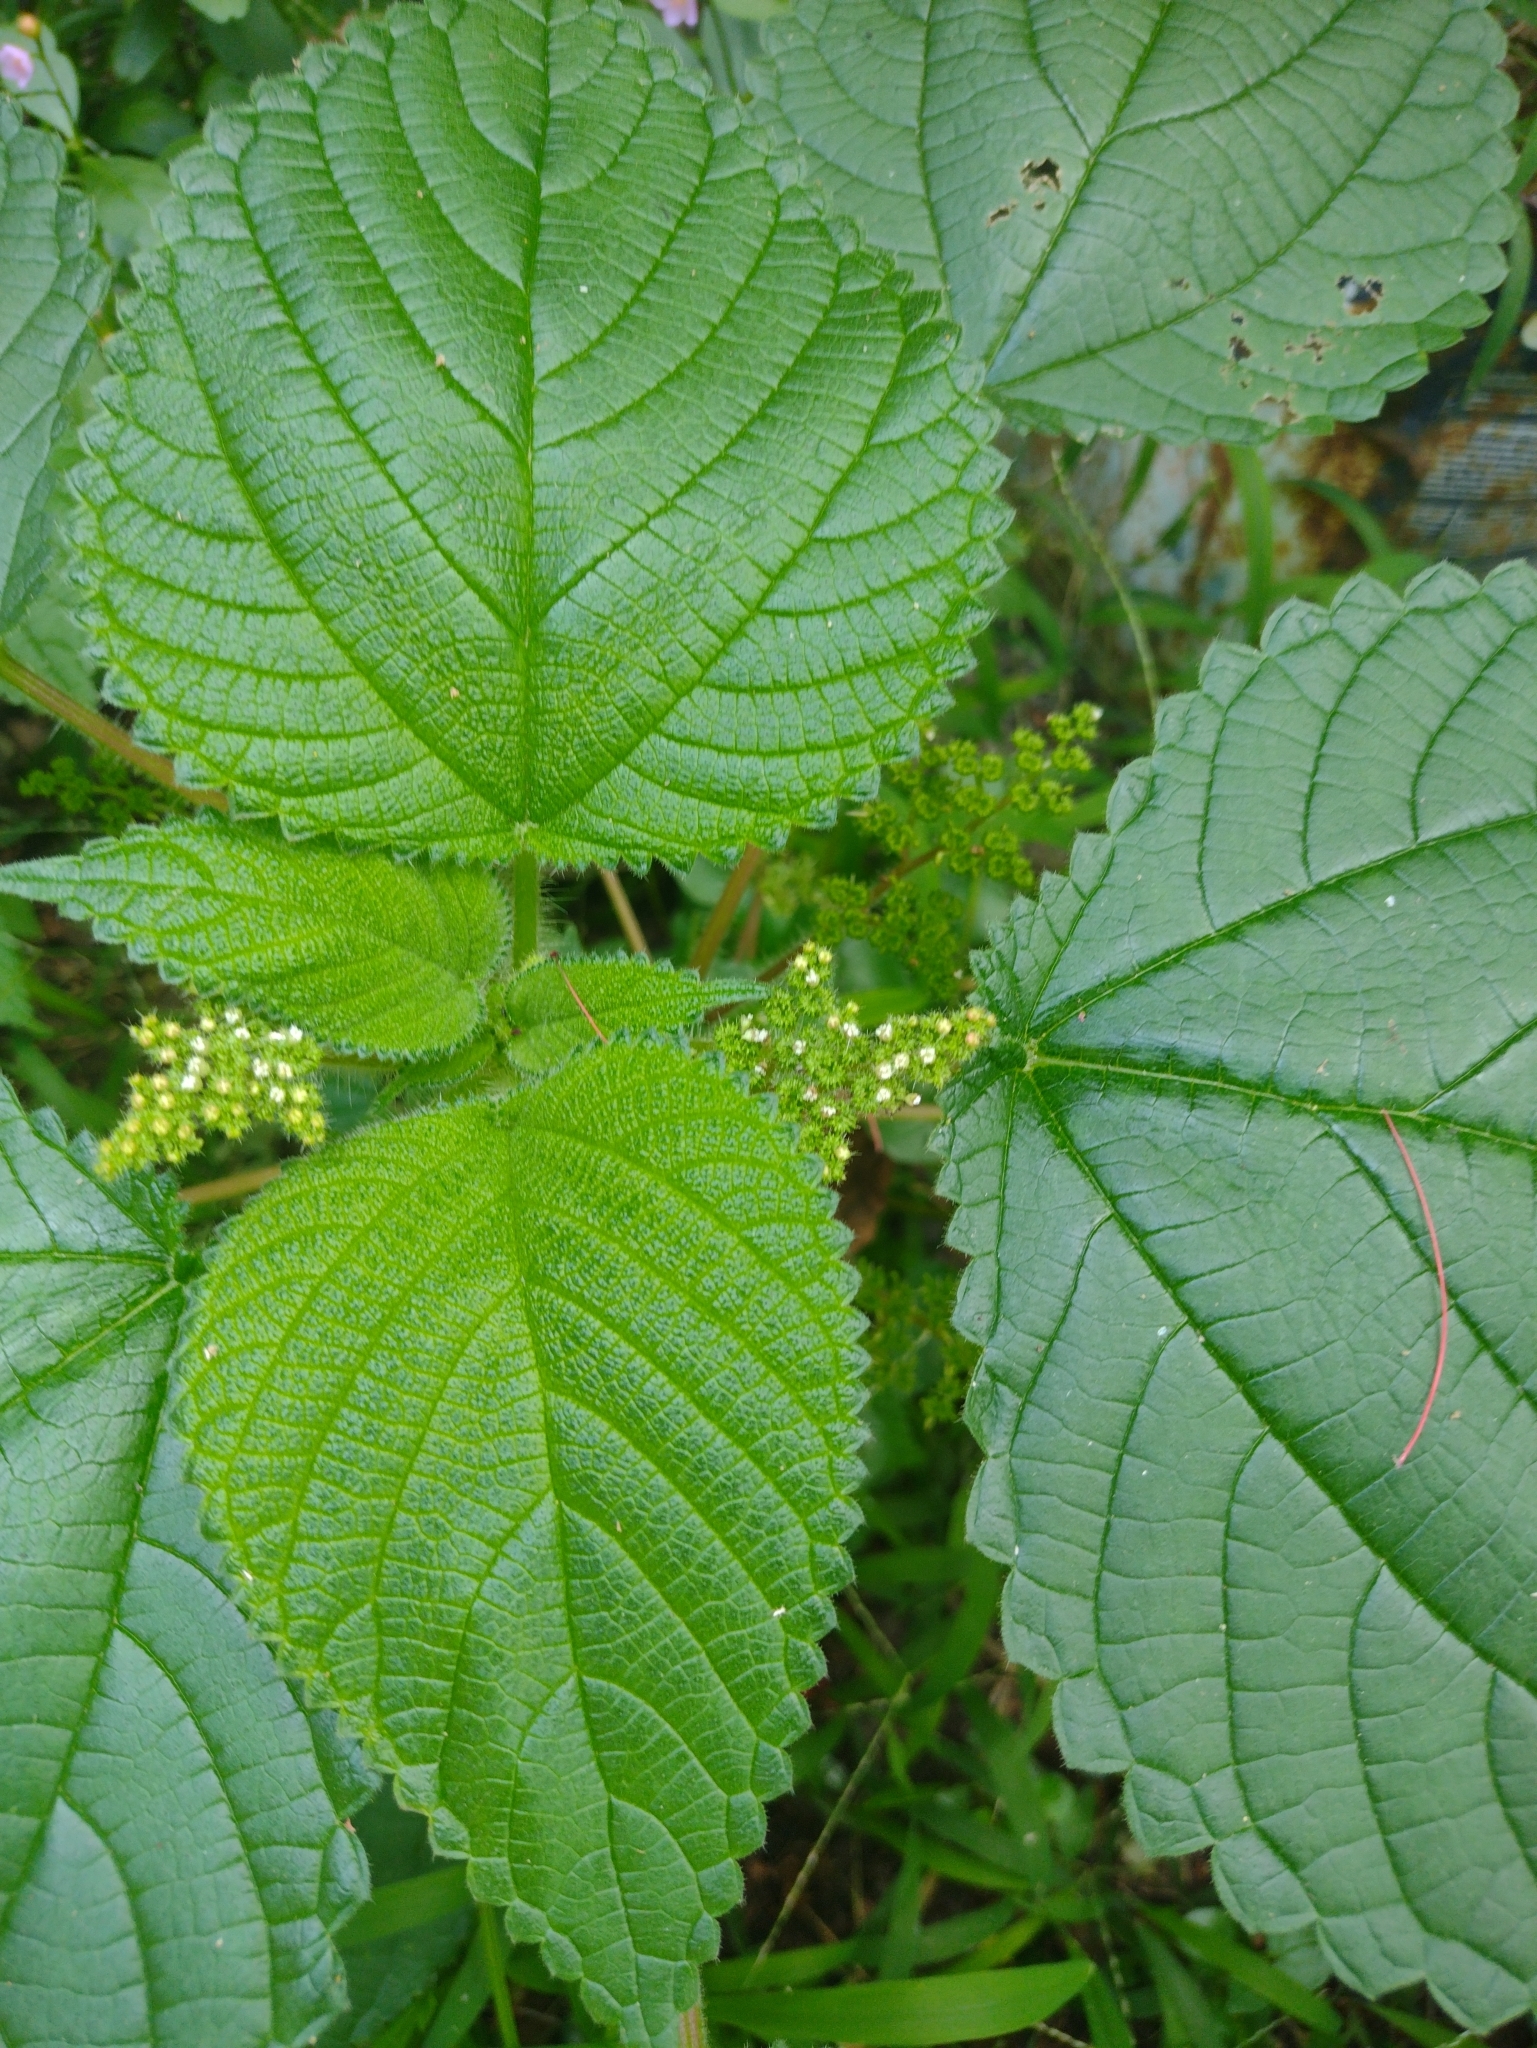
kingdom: Plantae
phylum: Tracheophyta
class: Magnoliopsida
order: Rosales
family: Urticaceae
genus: Laportea
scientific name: Laportea aestuans
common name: West indian woodnettle
